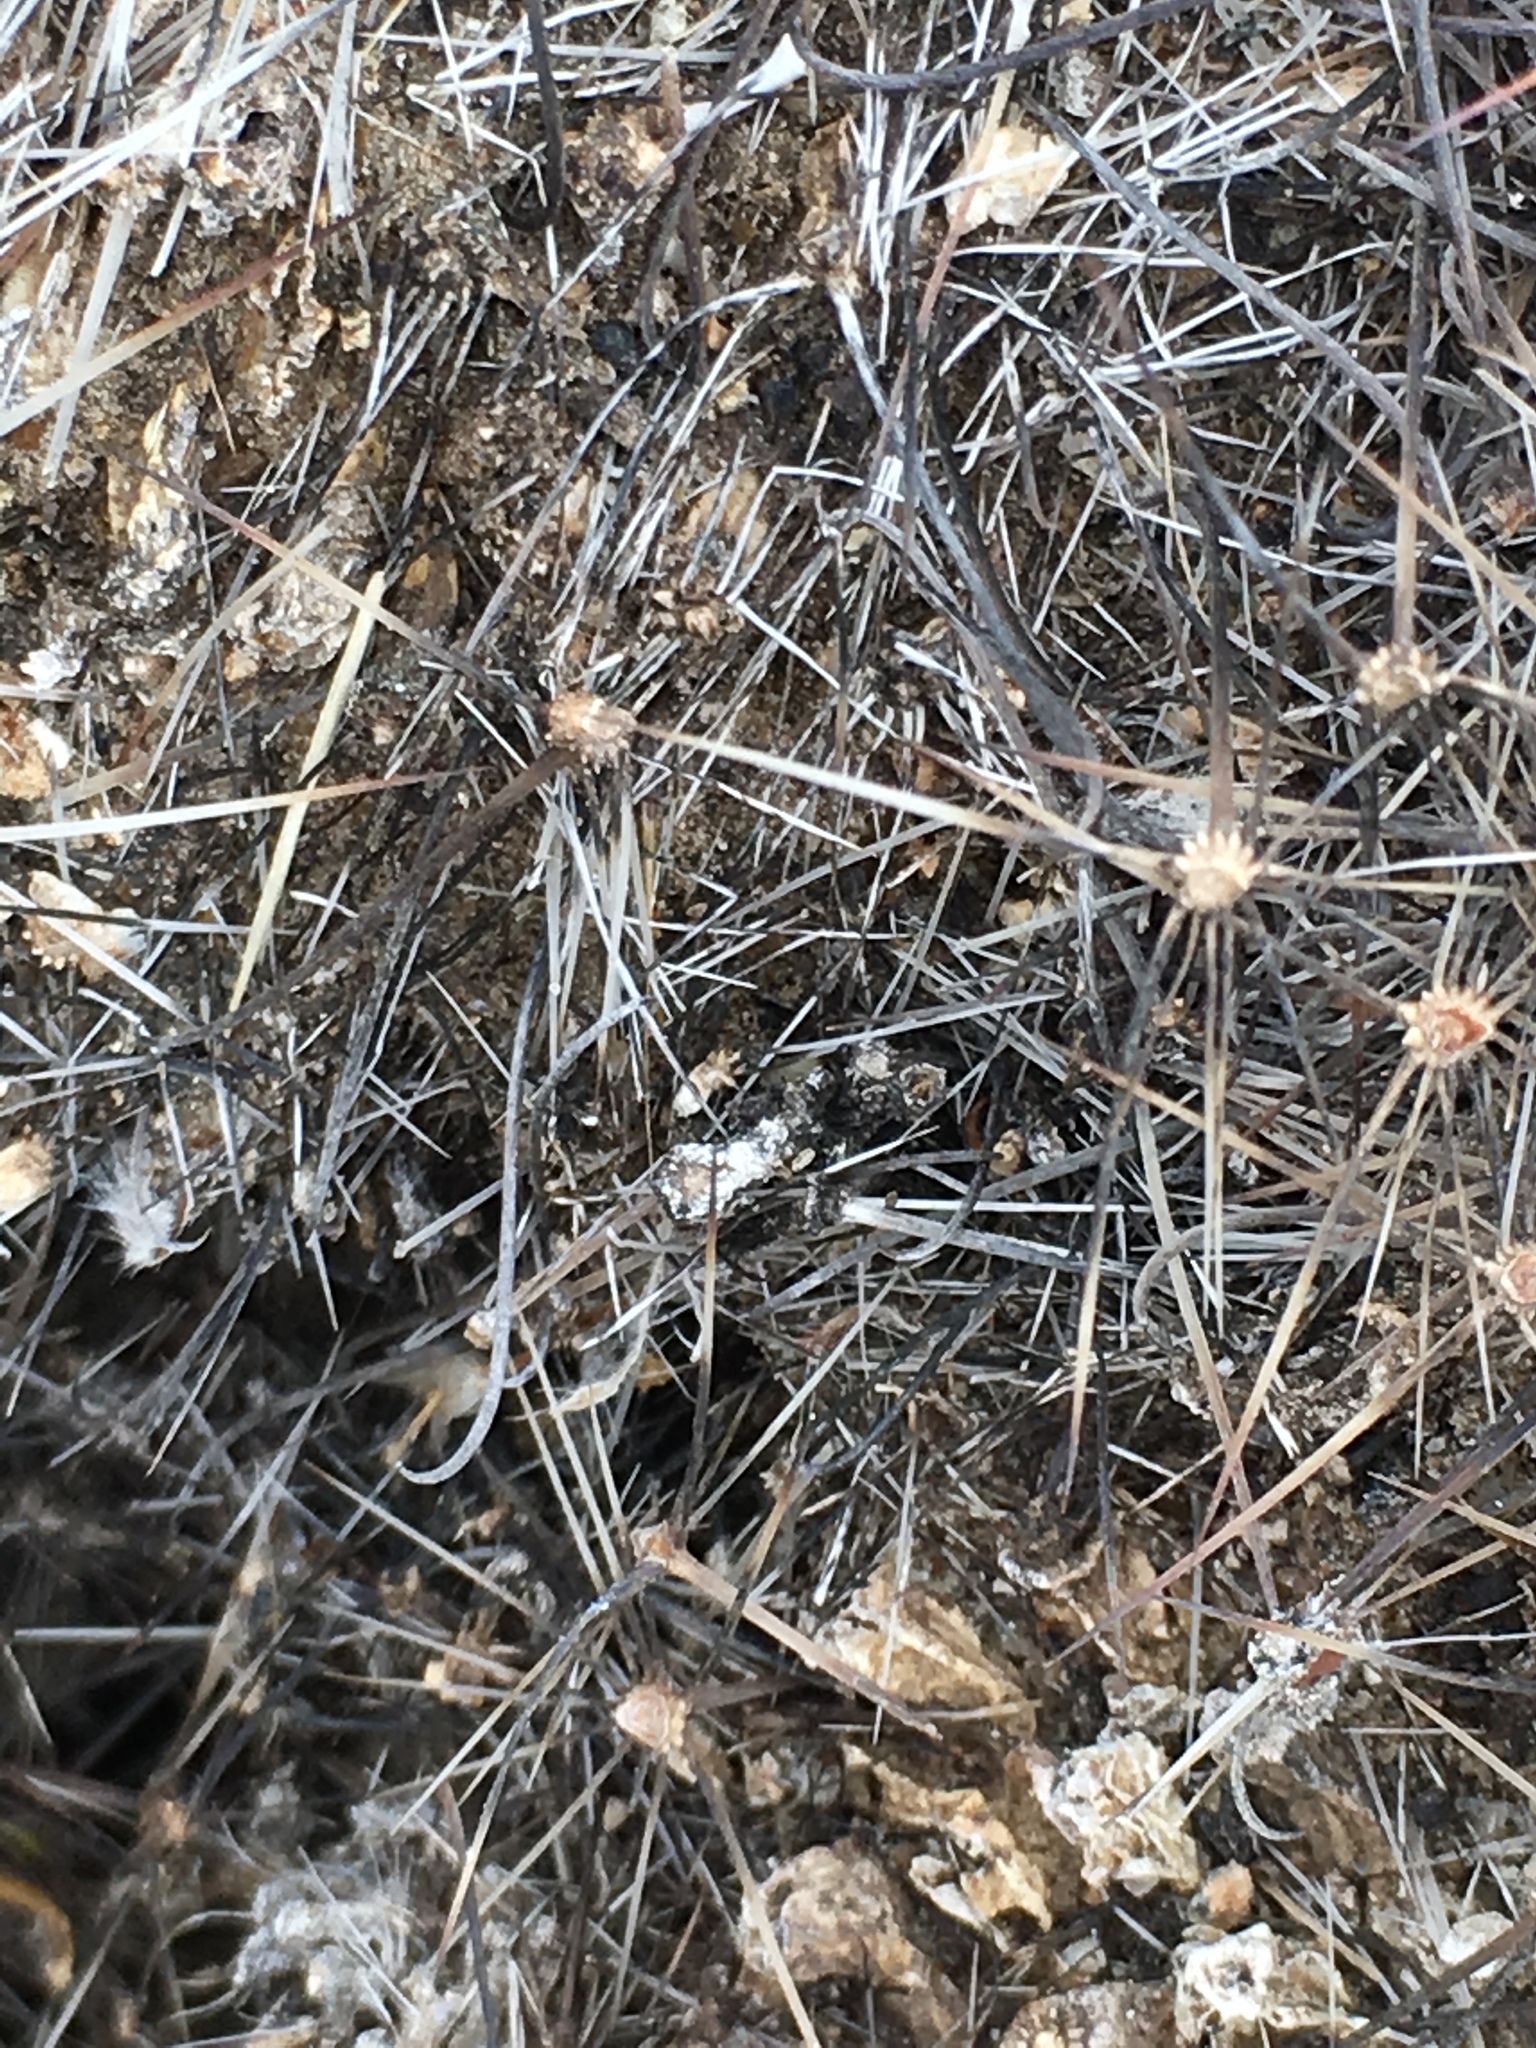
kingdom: Plantae
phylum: Tracheophyta
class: Magnoliopsida
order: Caryophyllales
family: Cactaceae
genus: Cochemiea
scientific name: Cochemiea dioica
